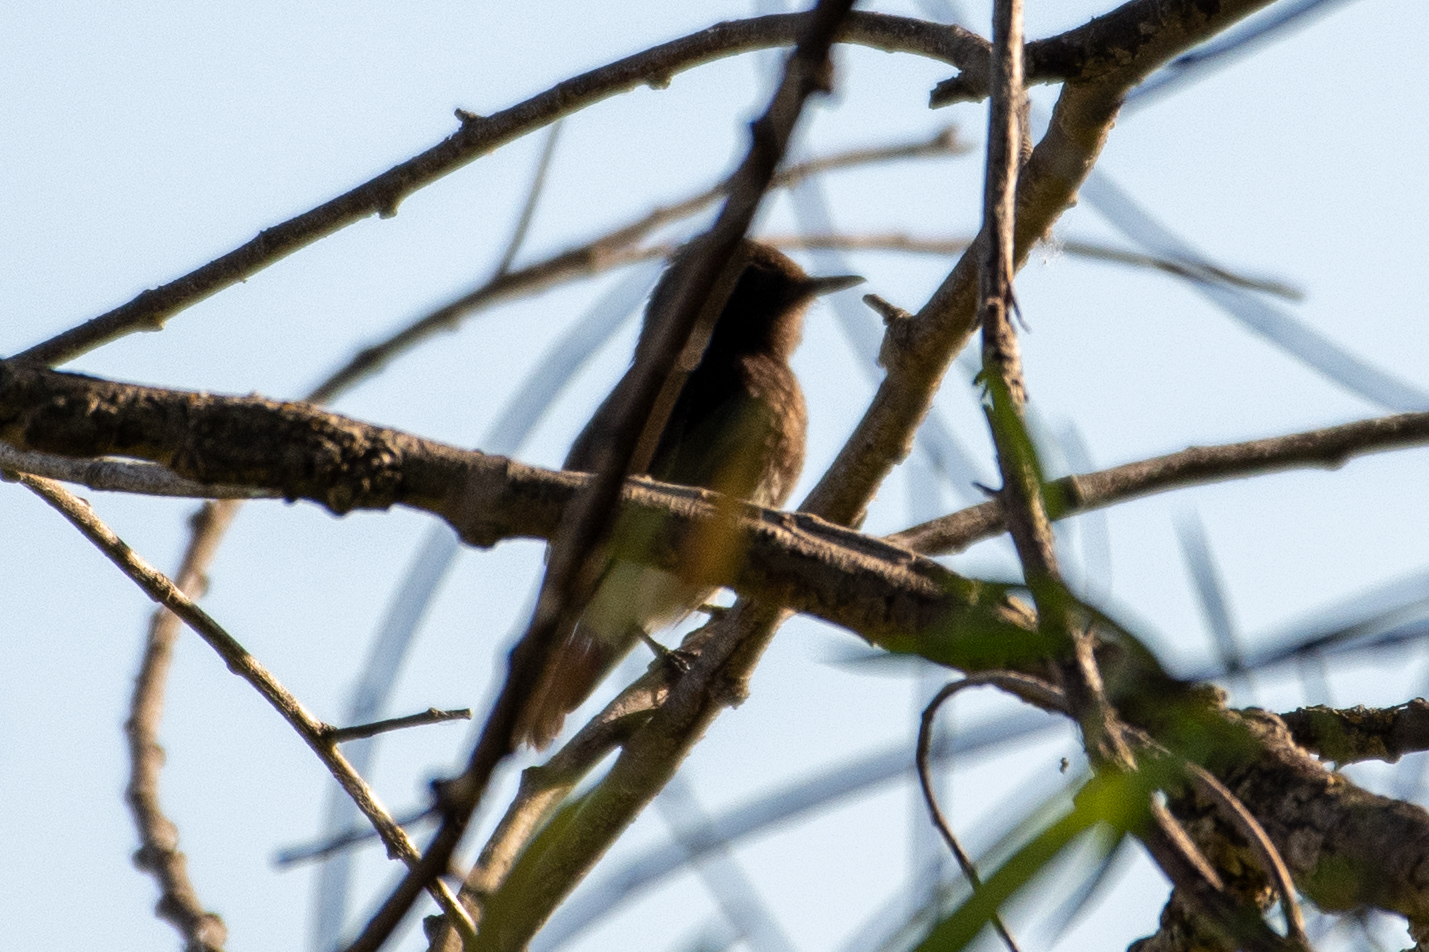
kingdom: Animalia
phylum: Chordata
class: Aves
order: Passeriformes
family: Tyrannidae
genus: Sayornis
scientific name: Sayornis nigricans
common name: Black phoebe
